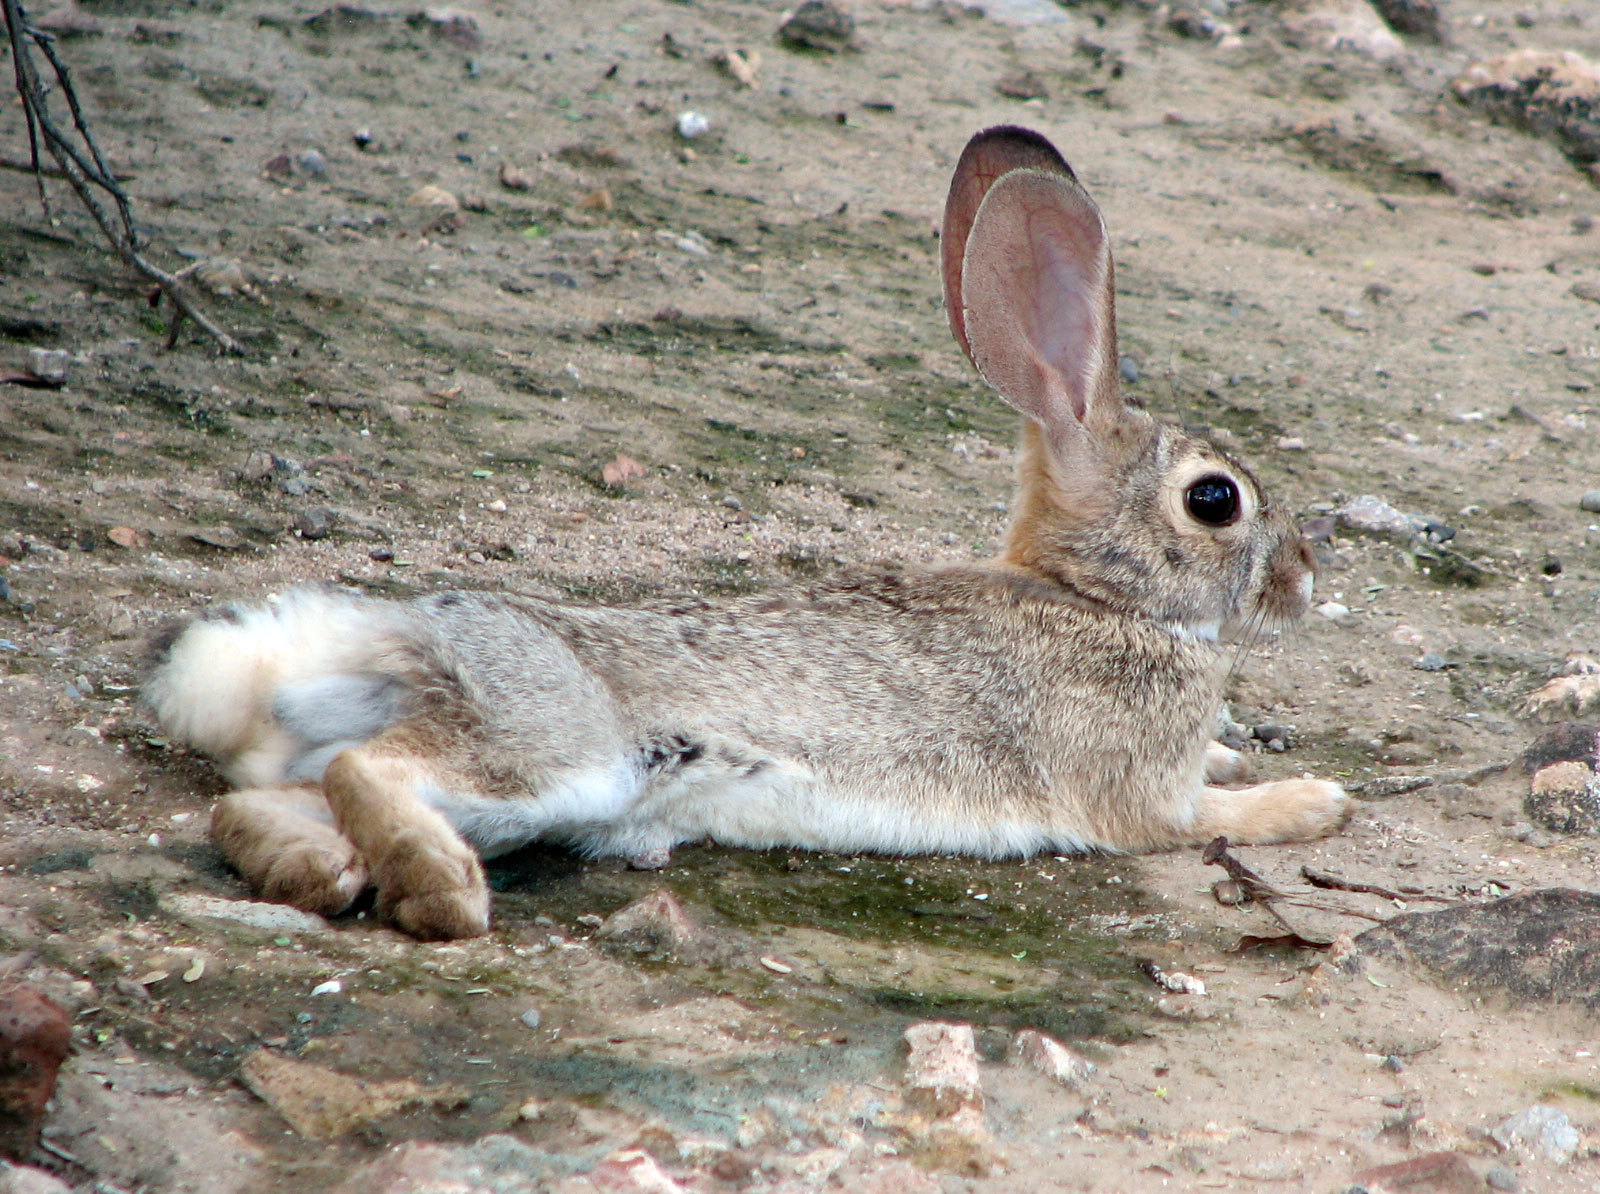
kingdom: Animalia
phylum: Chordata
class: Mammalia
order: Lagomorpha
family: Leporidae
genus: Sylvilagus
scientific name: Sylvilagus audubonii
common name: Desert cottontail
